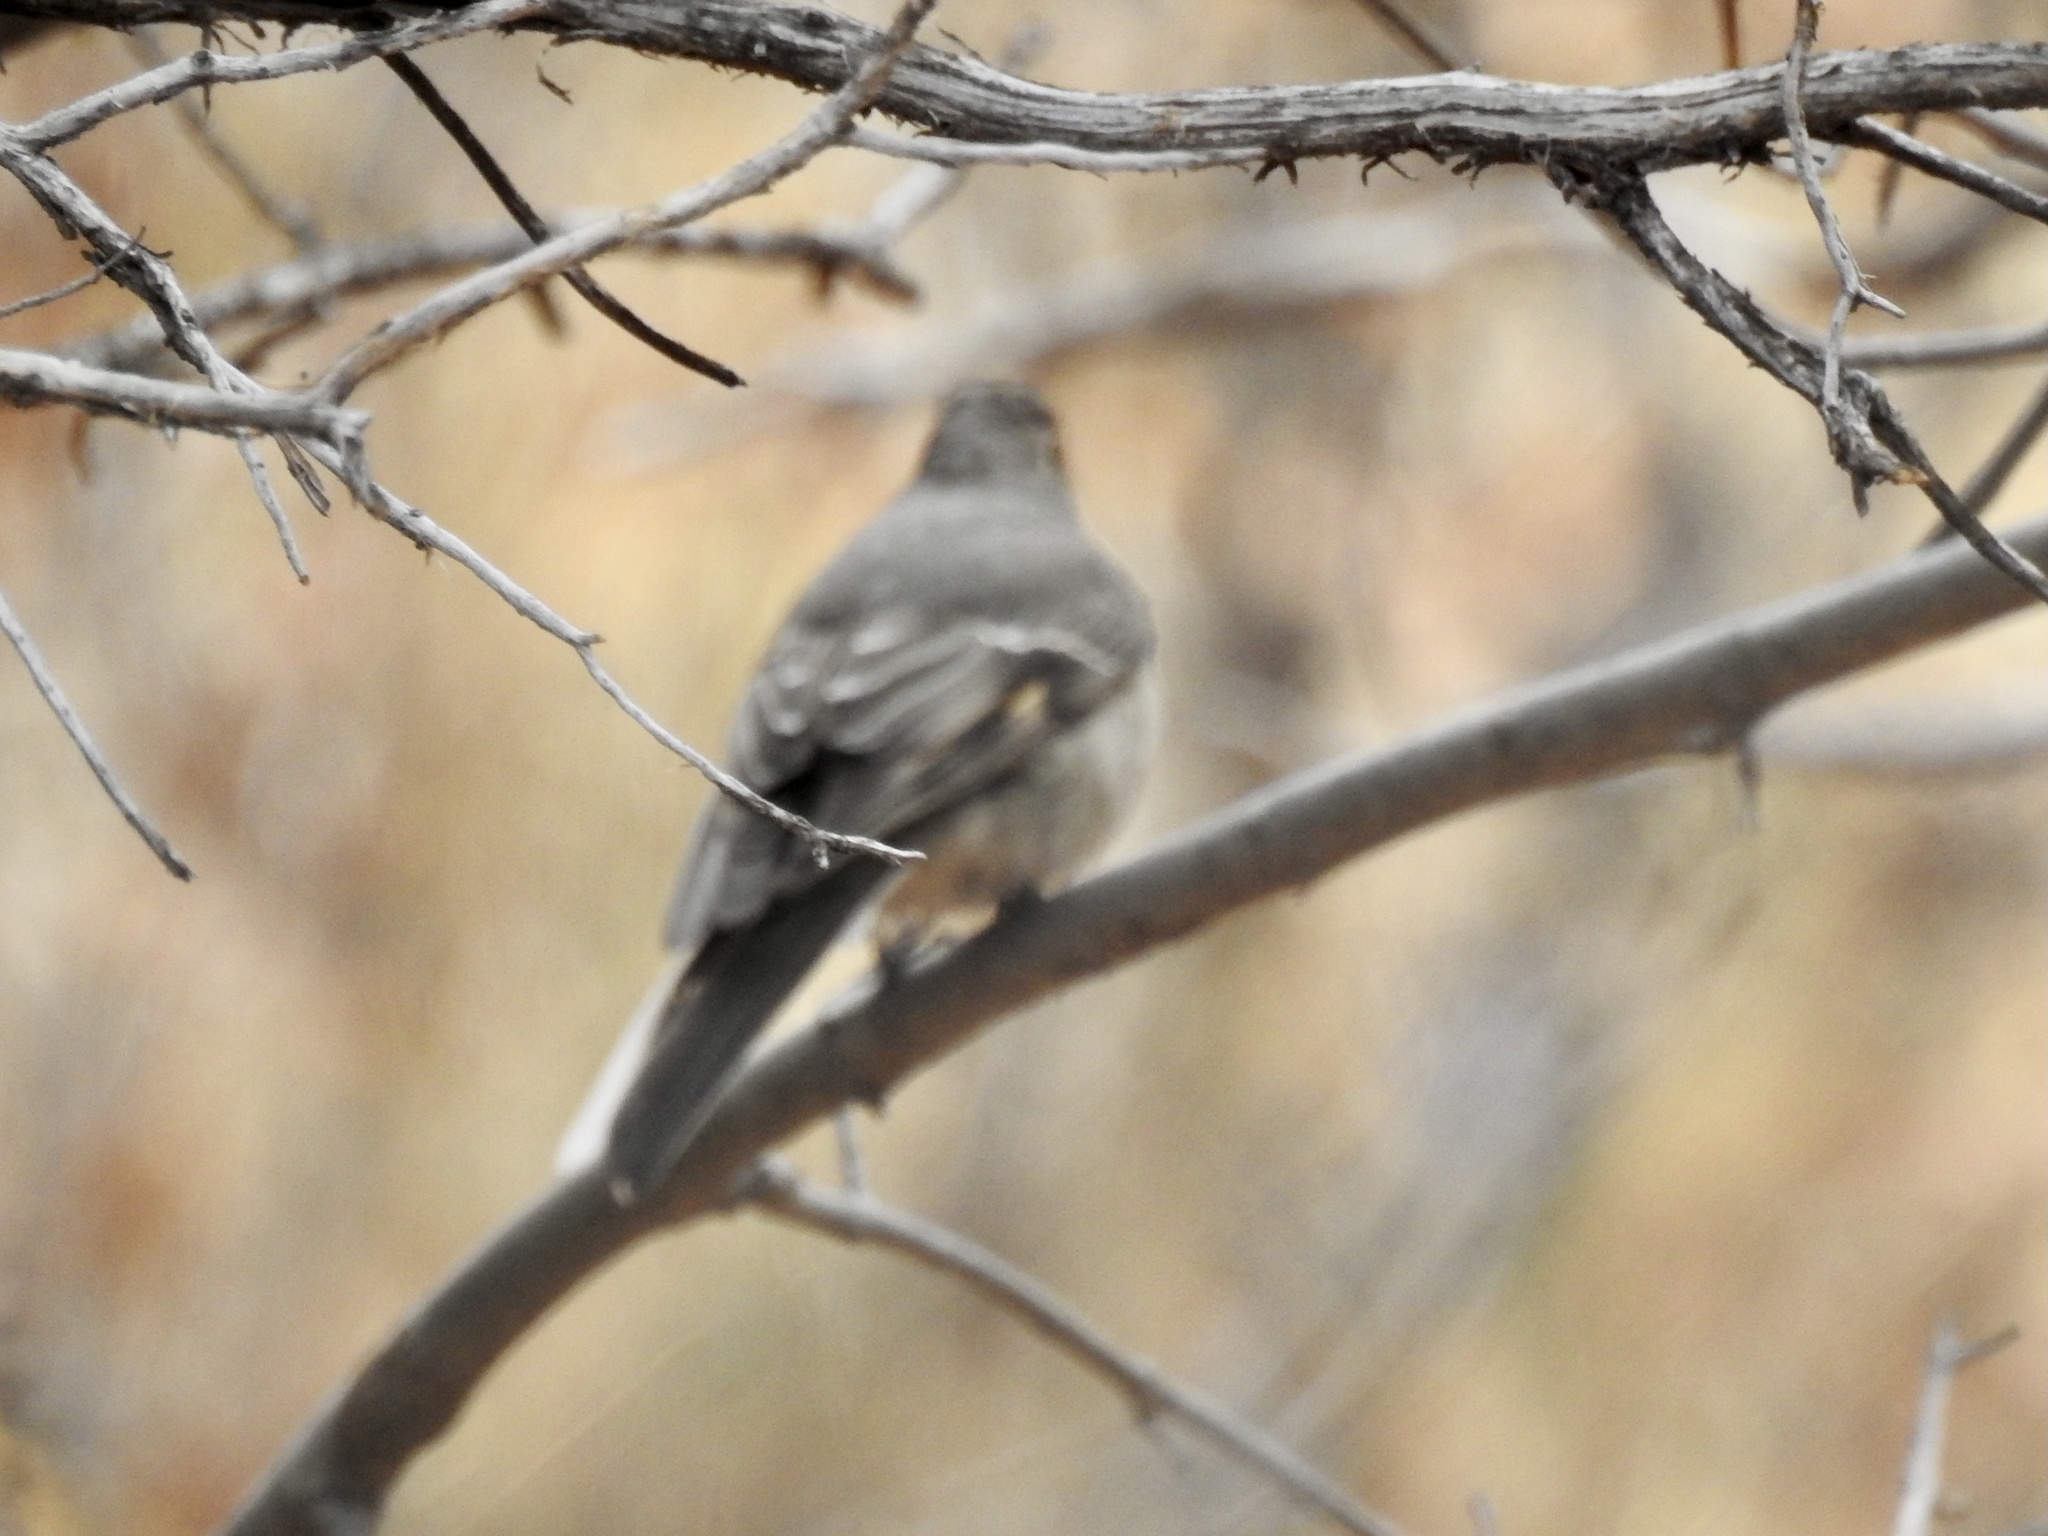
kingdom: Animalia
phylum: Chordata
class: Aves
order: Passeriformes
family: Turdidae
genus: Myadestes
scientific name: Myadestes townsendi
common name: Townsend's solitaire
